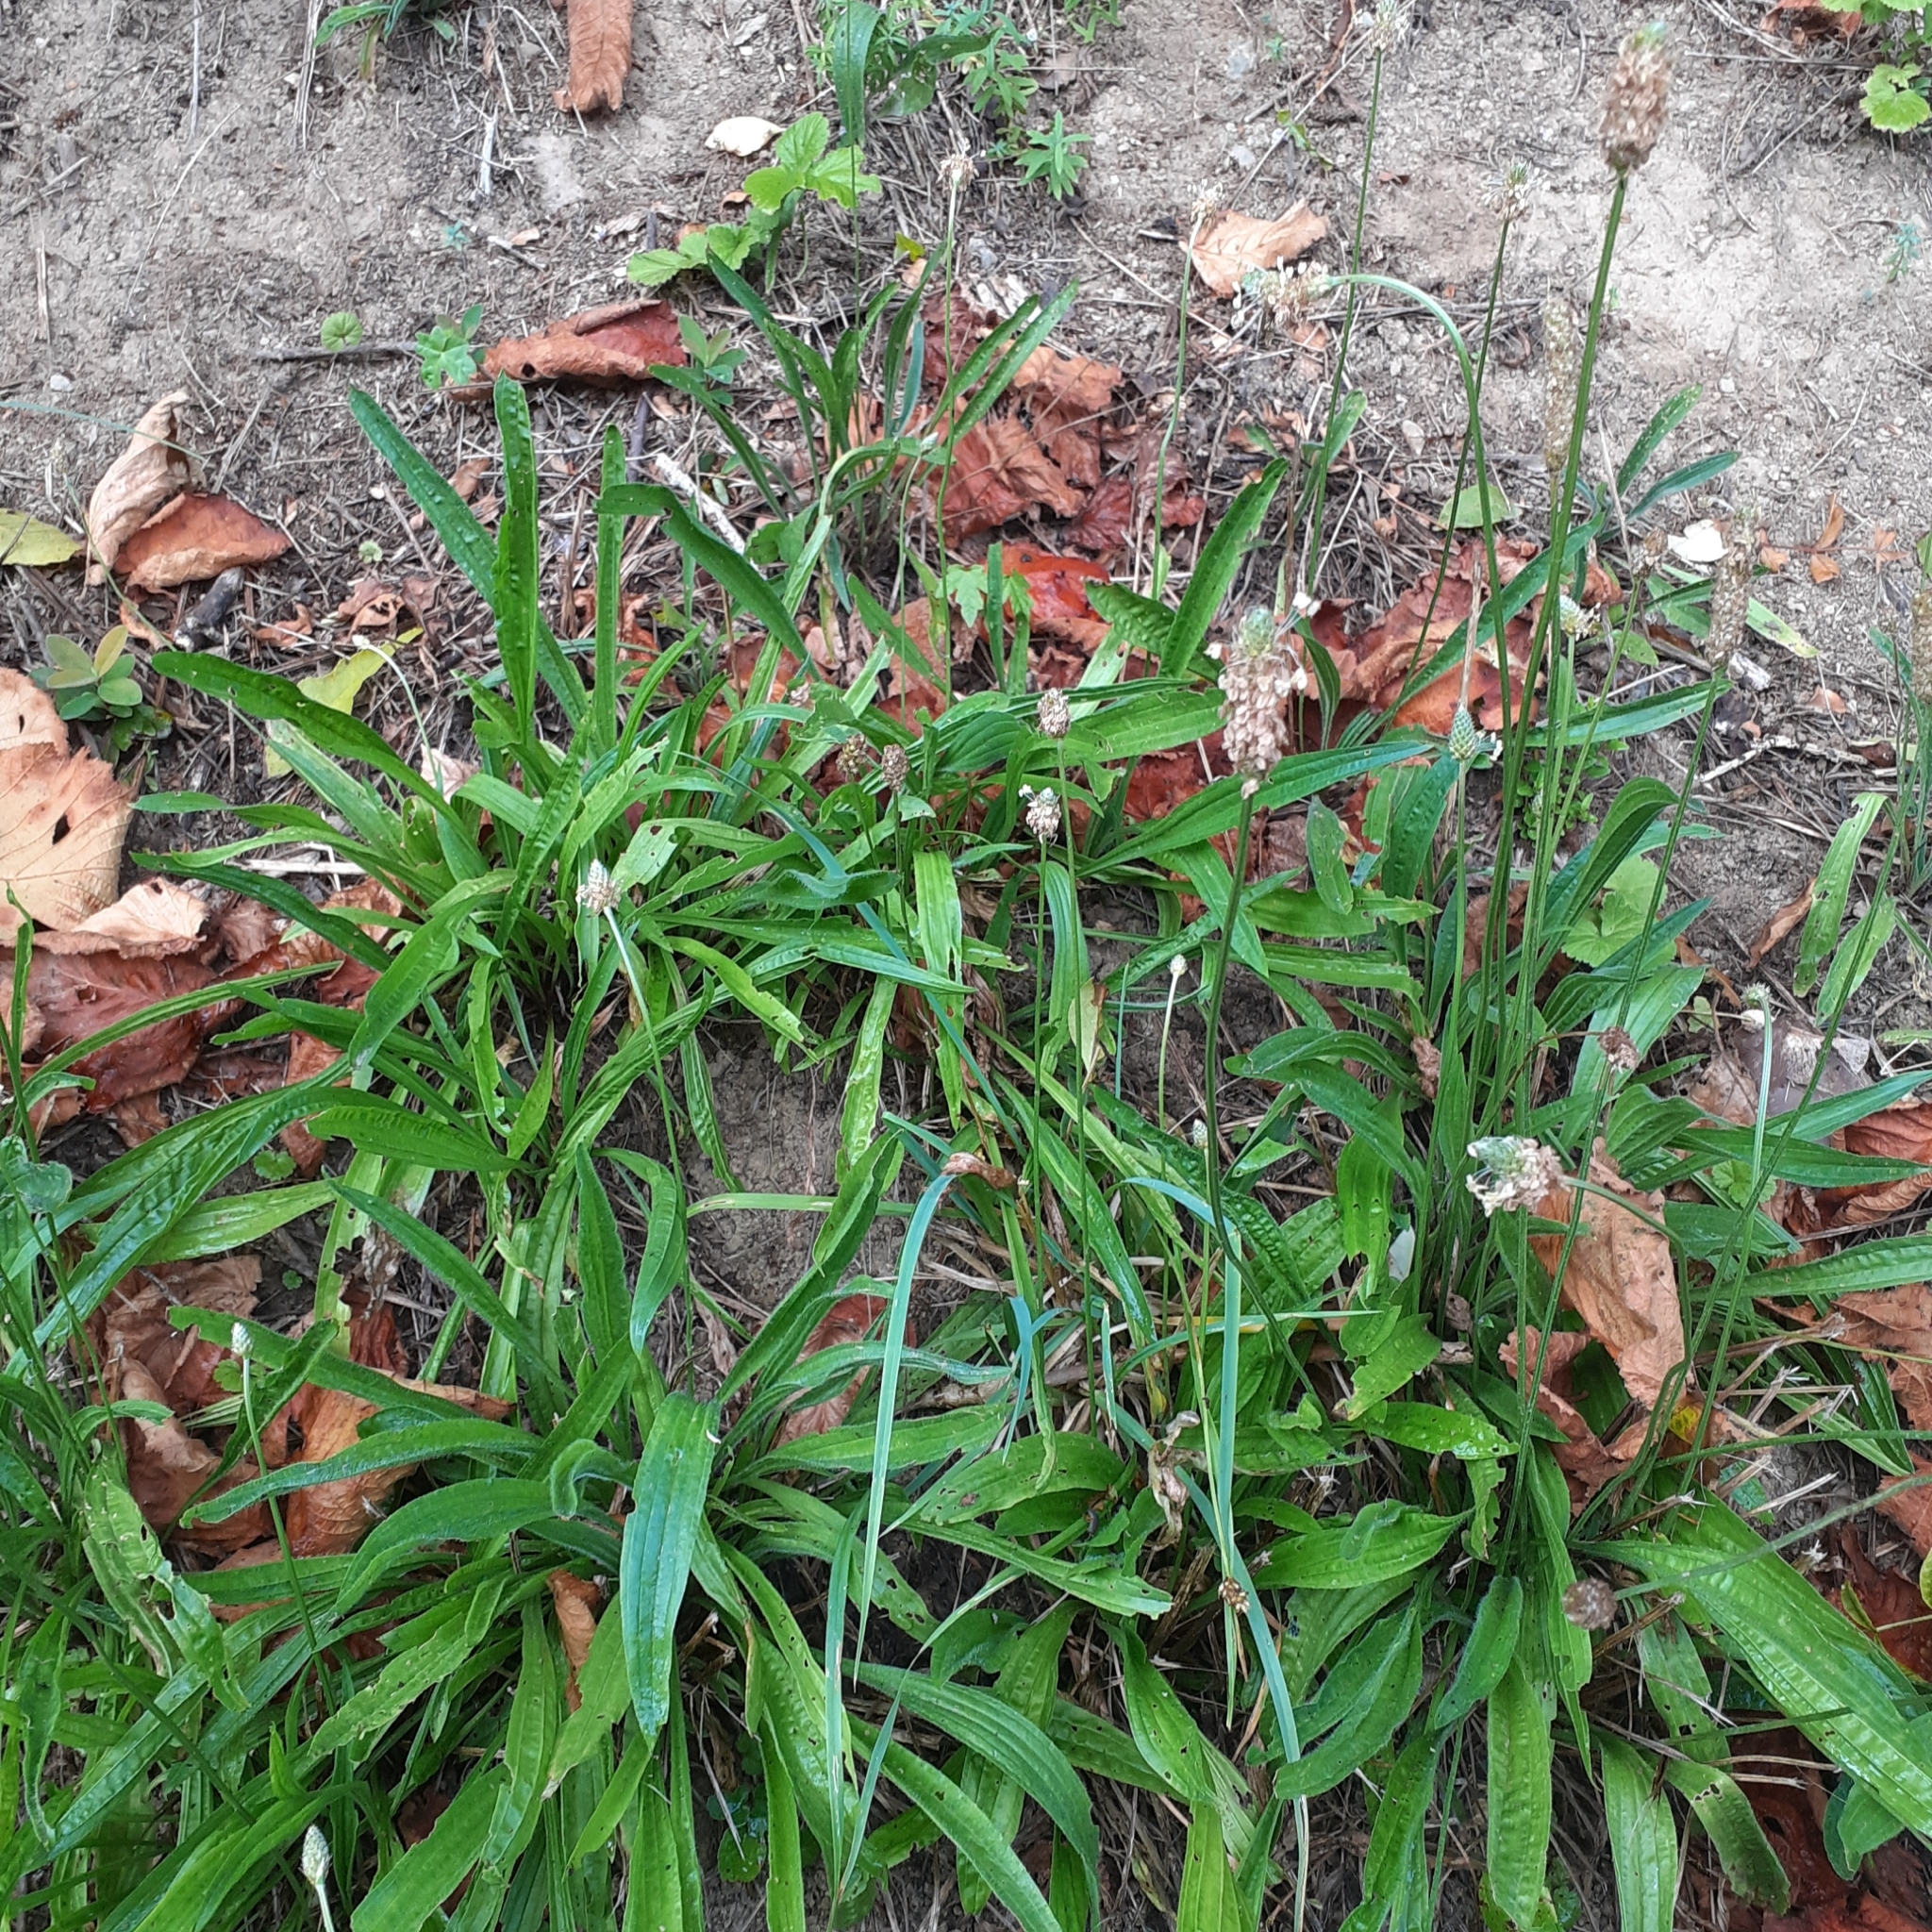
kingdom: Plantae
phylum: Tracheophyta
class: Magnoliopsida
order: Lamiales
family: Plantaginaceae
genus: Plantago
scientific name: Plantago lanceolata
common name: Ribwort plantain
